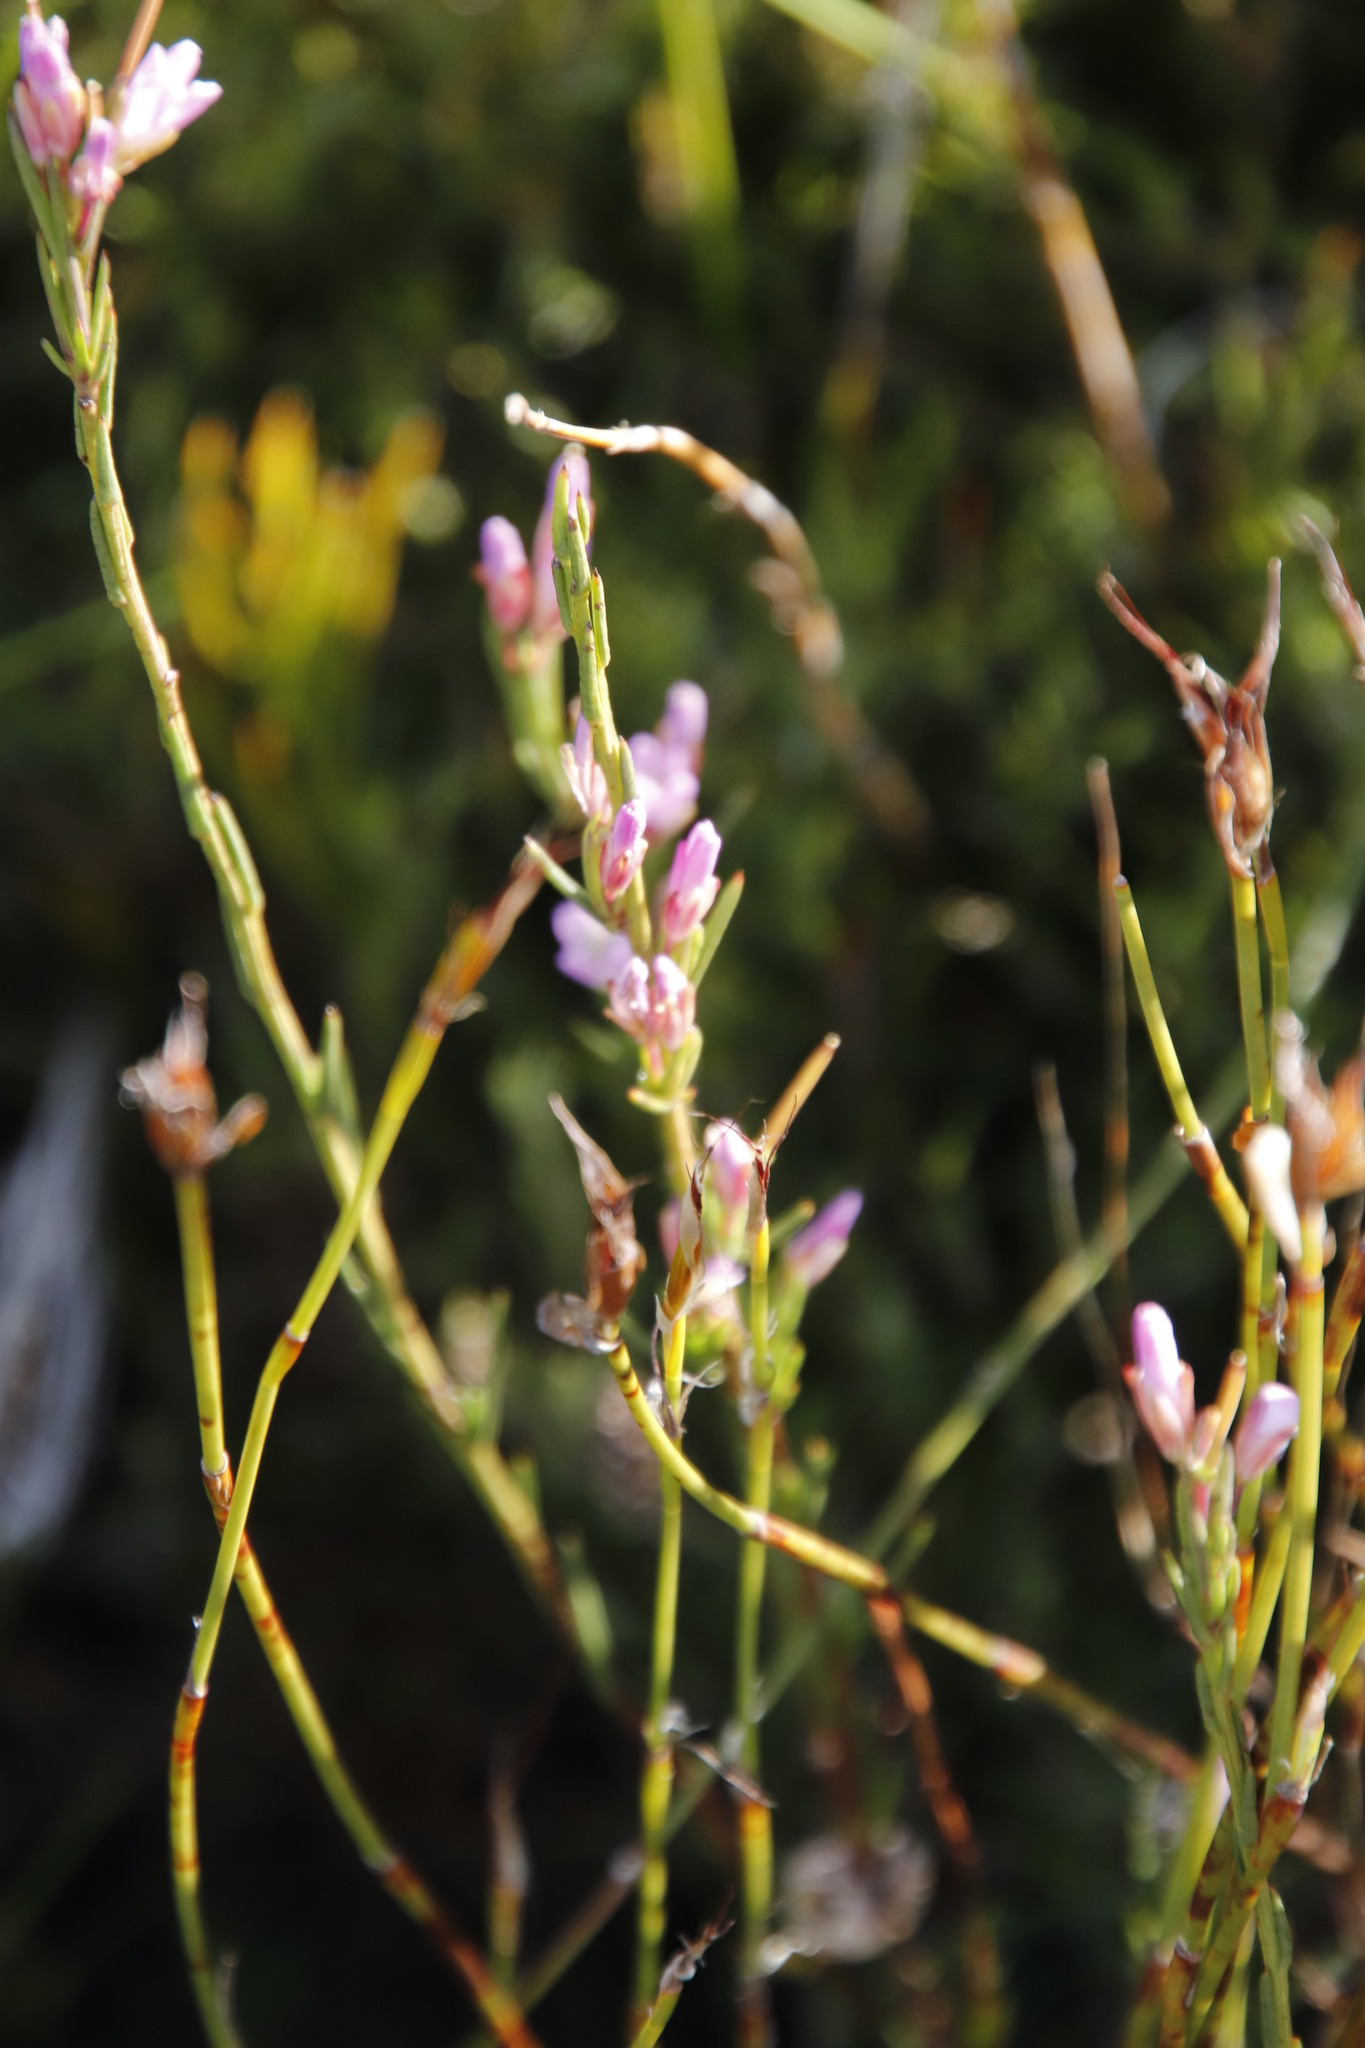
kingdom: Plantae
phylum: Tracheophyta
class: Magnoliopsida
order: Brassicales
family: Brassicaceae
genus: Heliophila
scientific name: Heliophila scoparia
